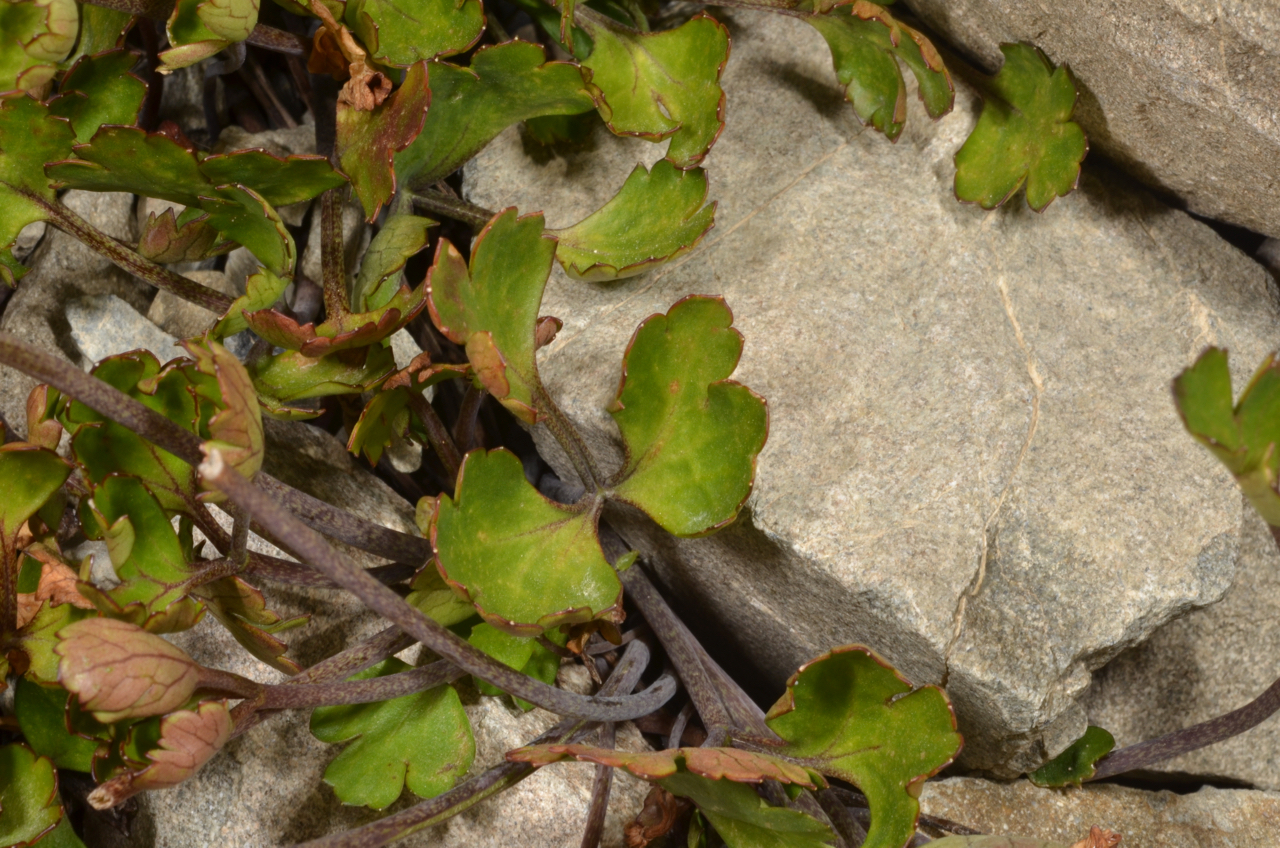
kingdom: Plantae
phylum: Tracheophyta
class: Magnoliopsida
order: Ranunculales
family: Ranunculaceae
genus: Ranunculus
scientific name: Ranunculus enysii
